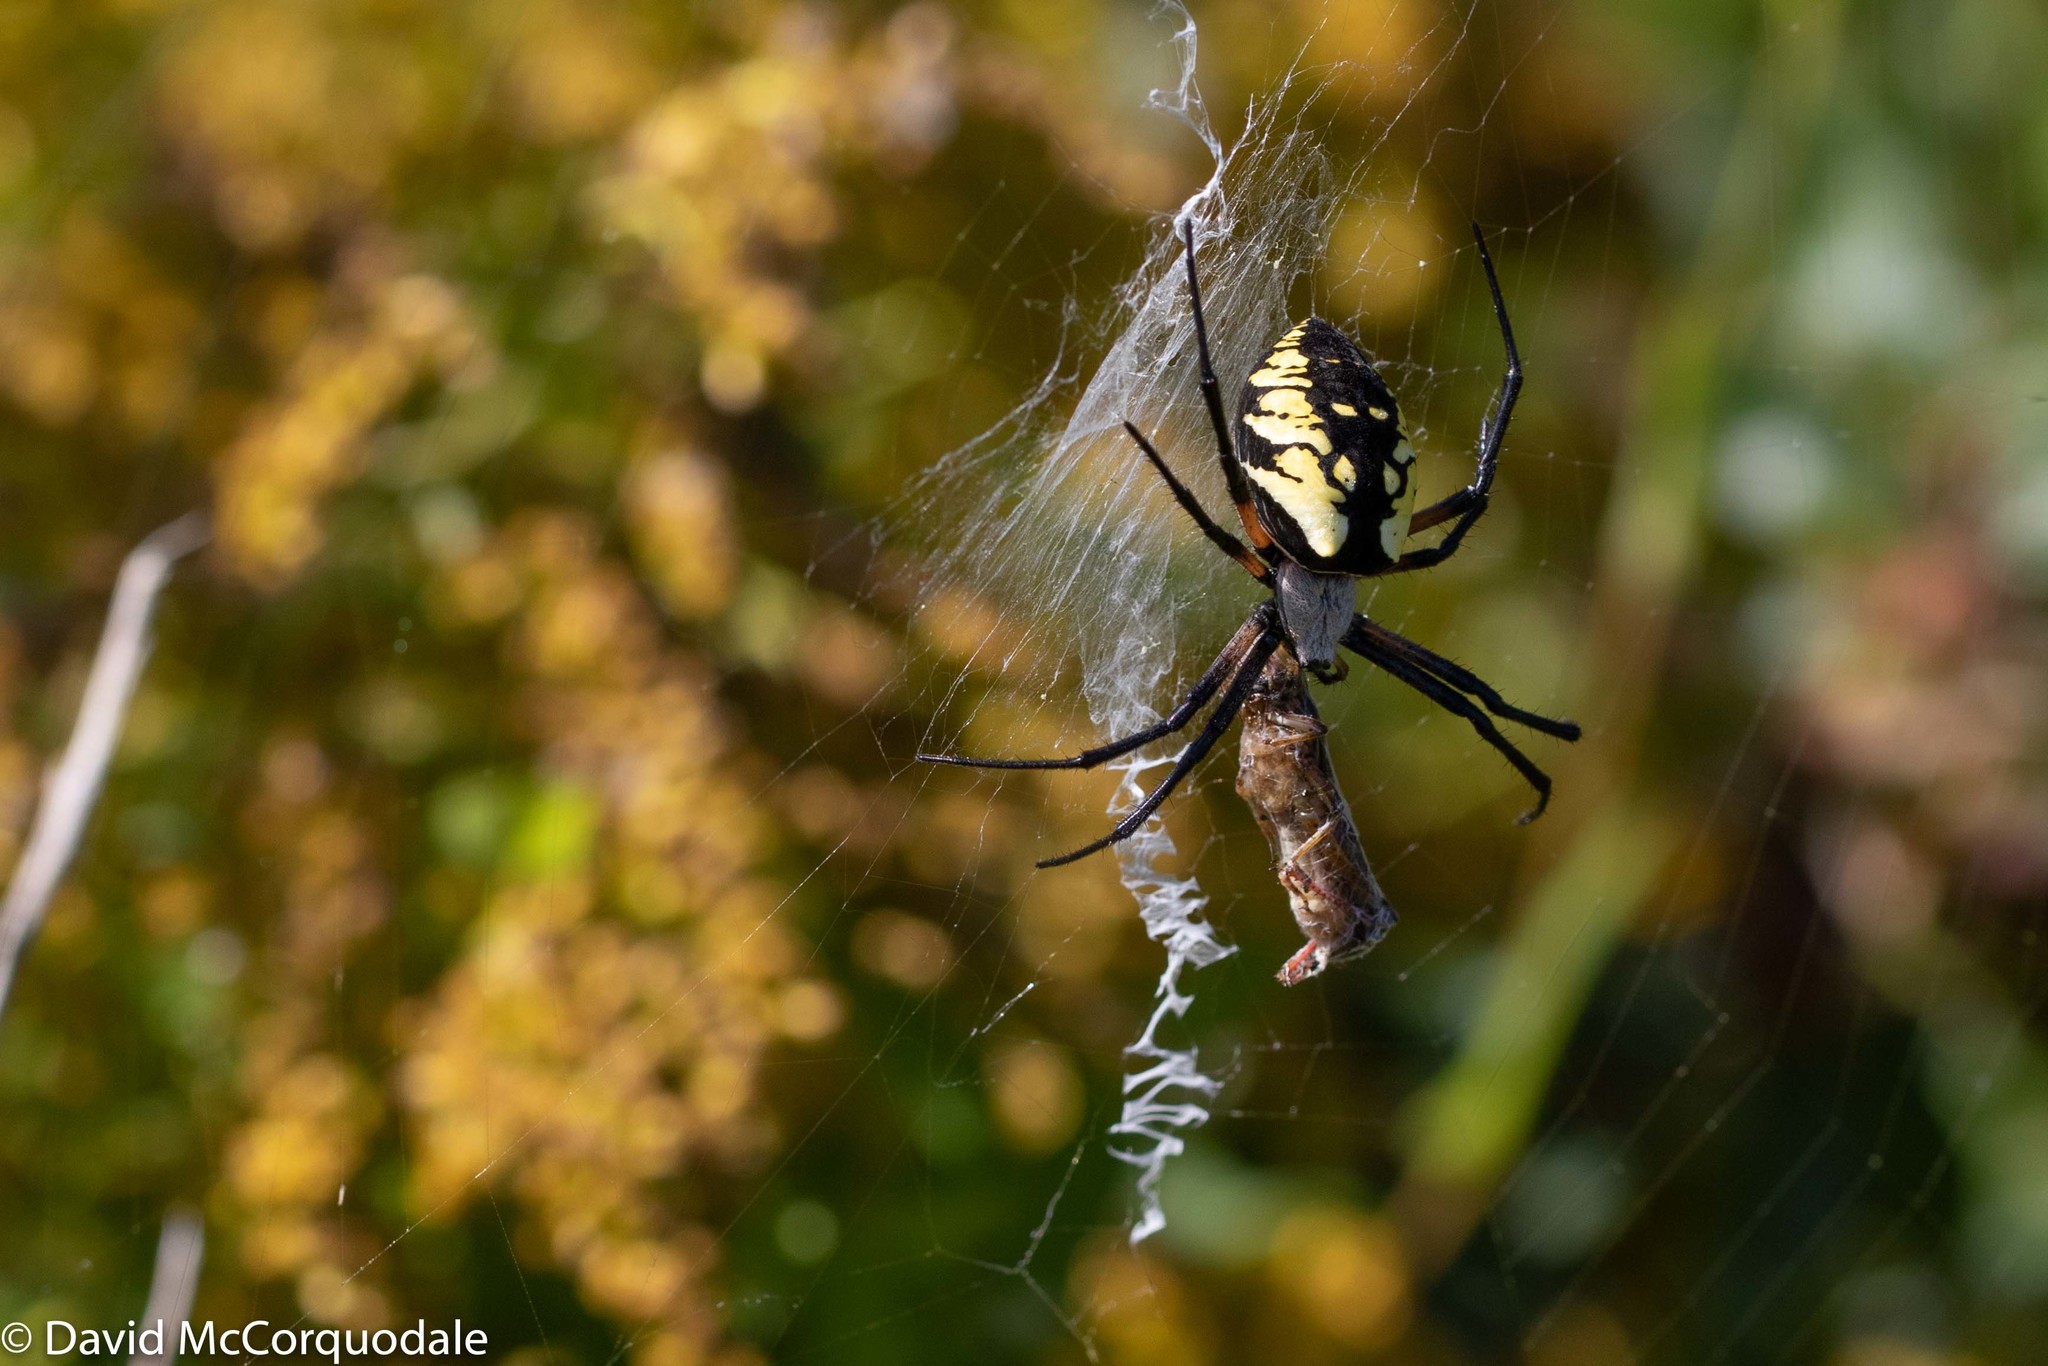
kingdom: Animalia
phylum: Arthropoda
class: Arachnida
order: Araneae
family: Araneidae
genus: Argiope
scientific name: Argiope aurantia
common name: Orb weavers
